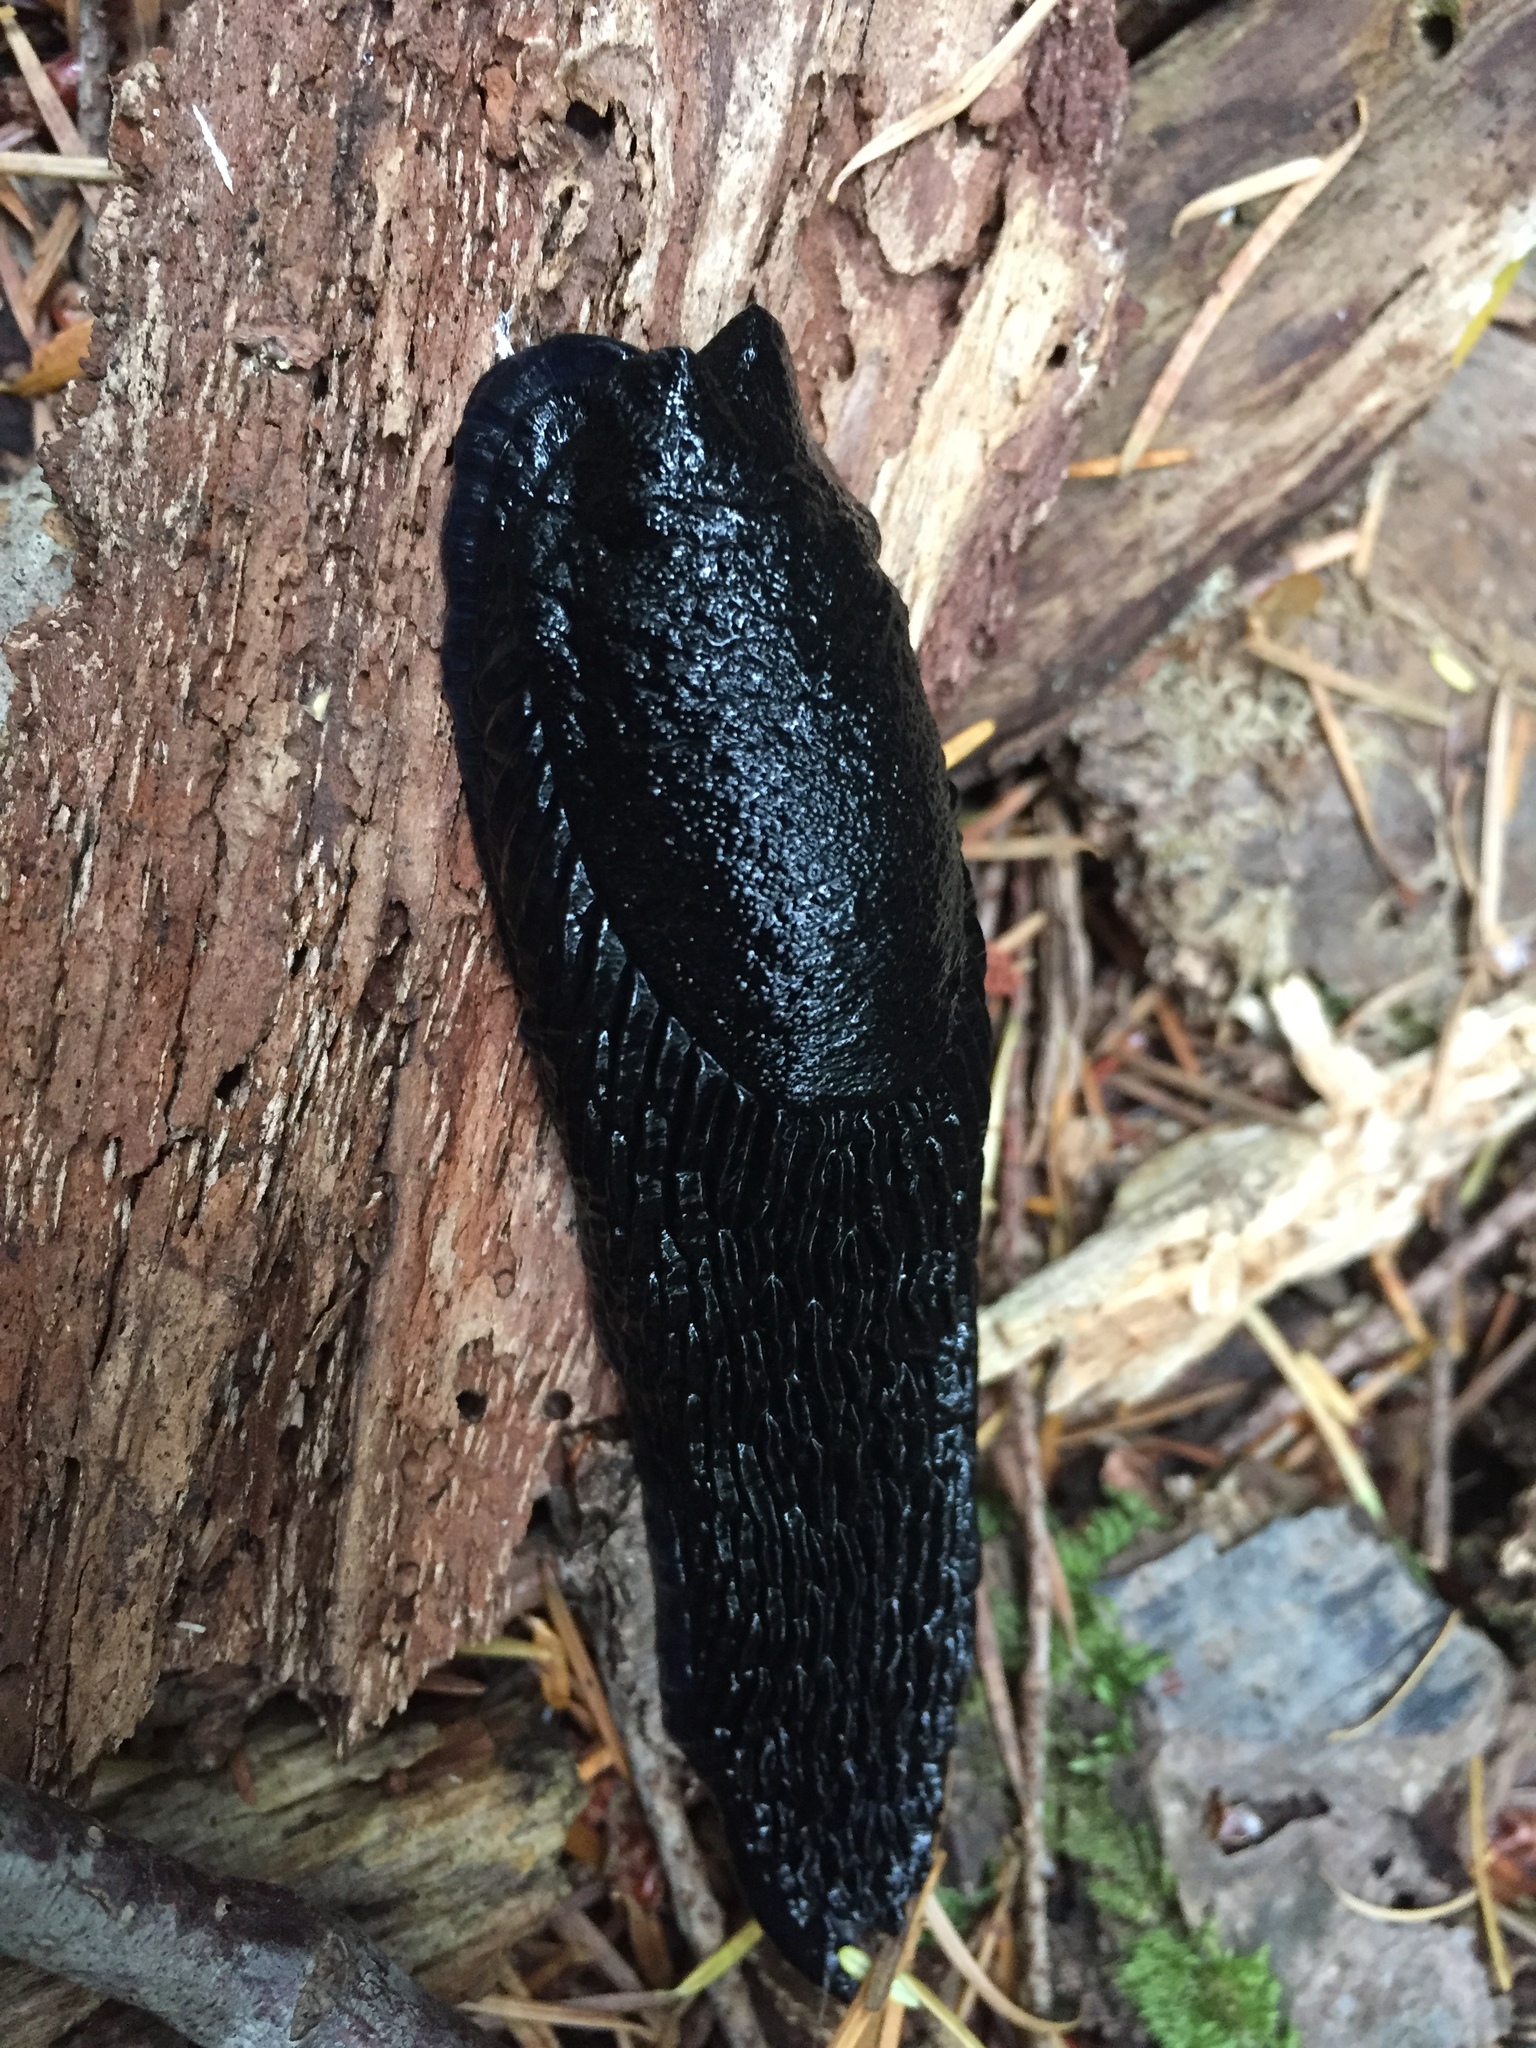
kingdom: Animalia
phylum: Mollusca
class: Gastropoda
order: Stylommatophora
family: Arionidae
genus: Arion
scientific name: Arion rufus
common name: Chocolate arion
